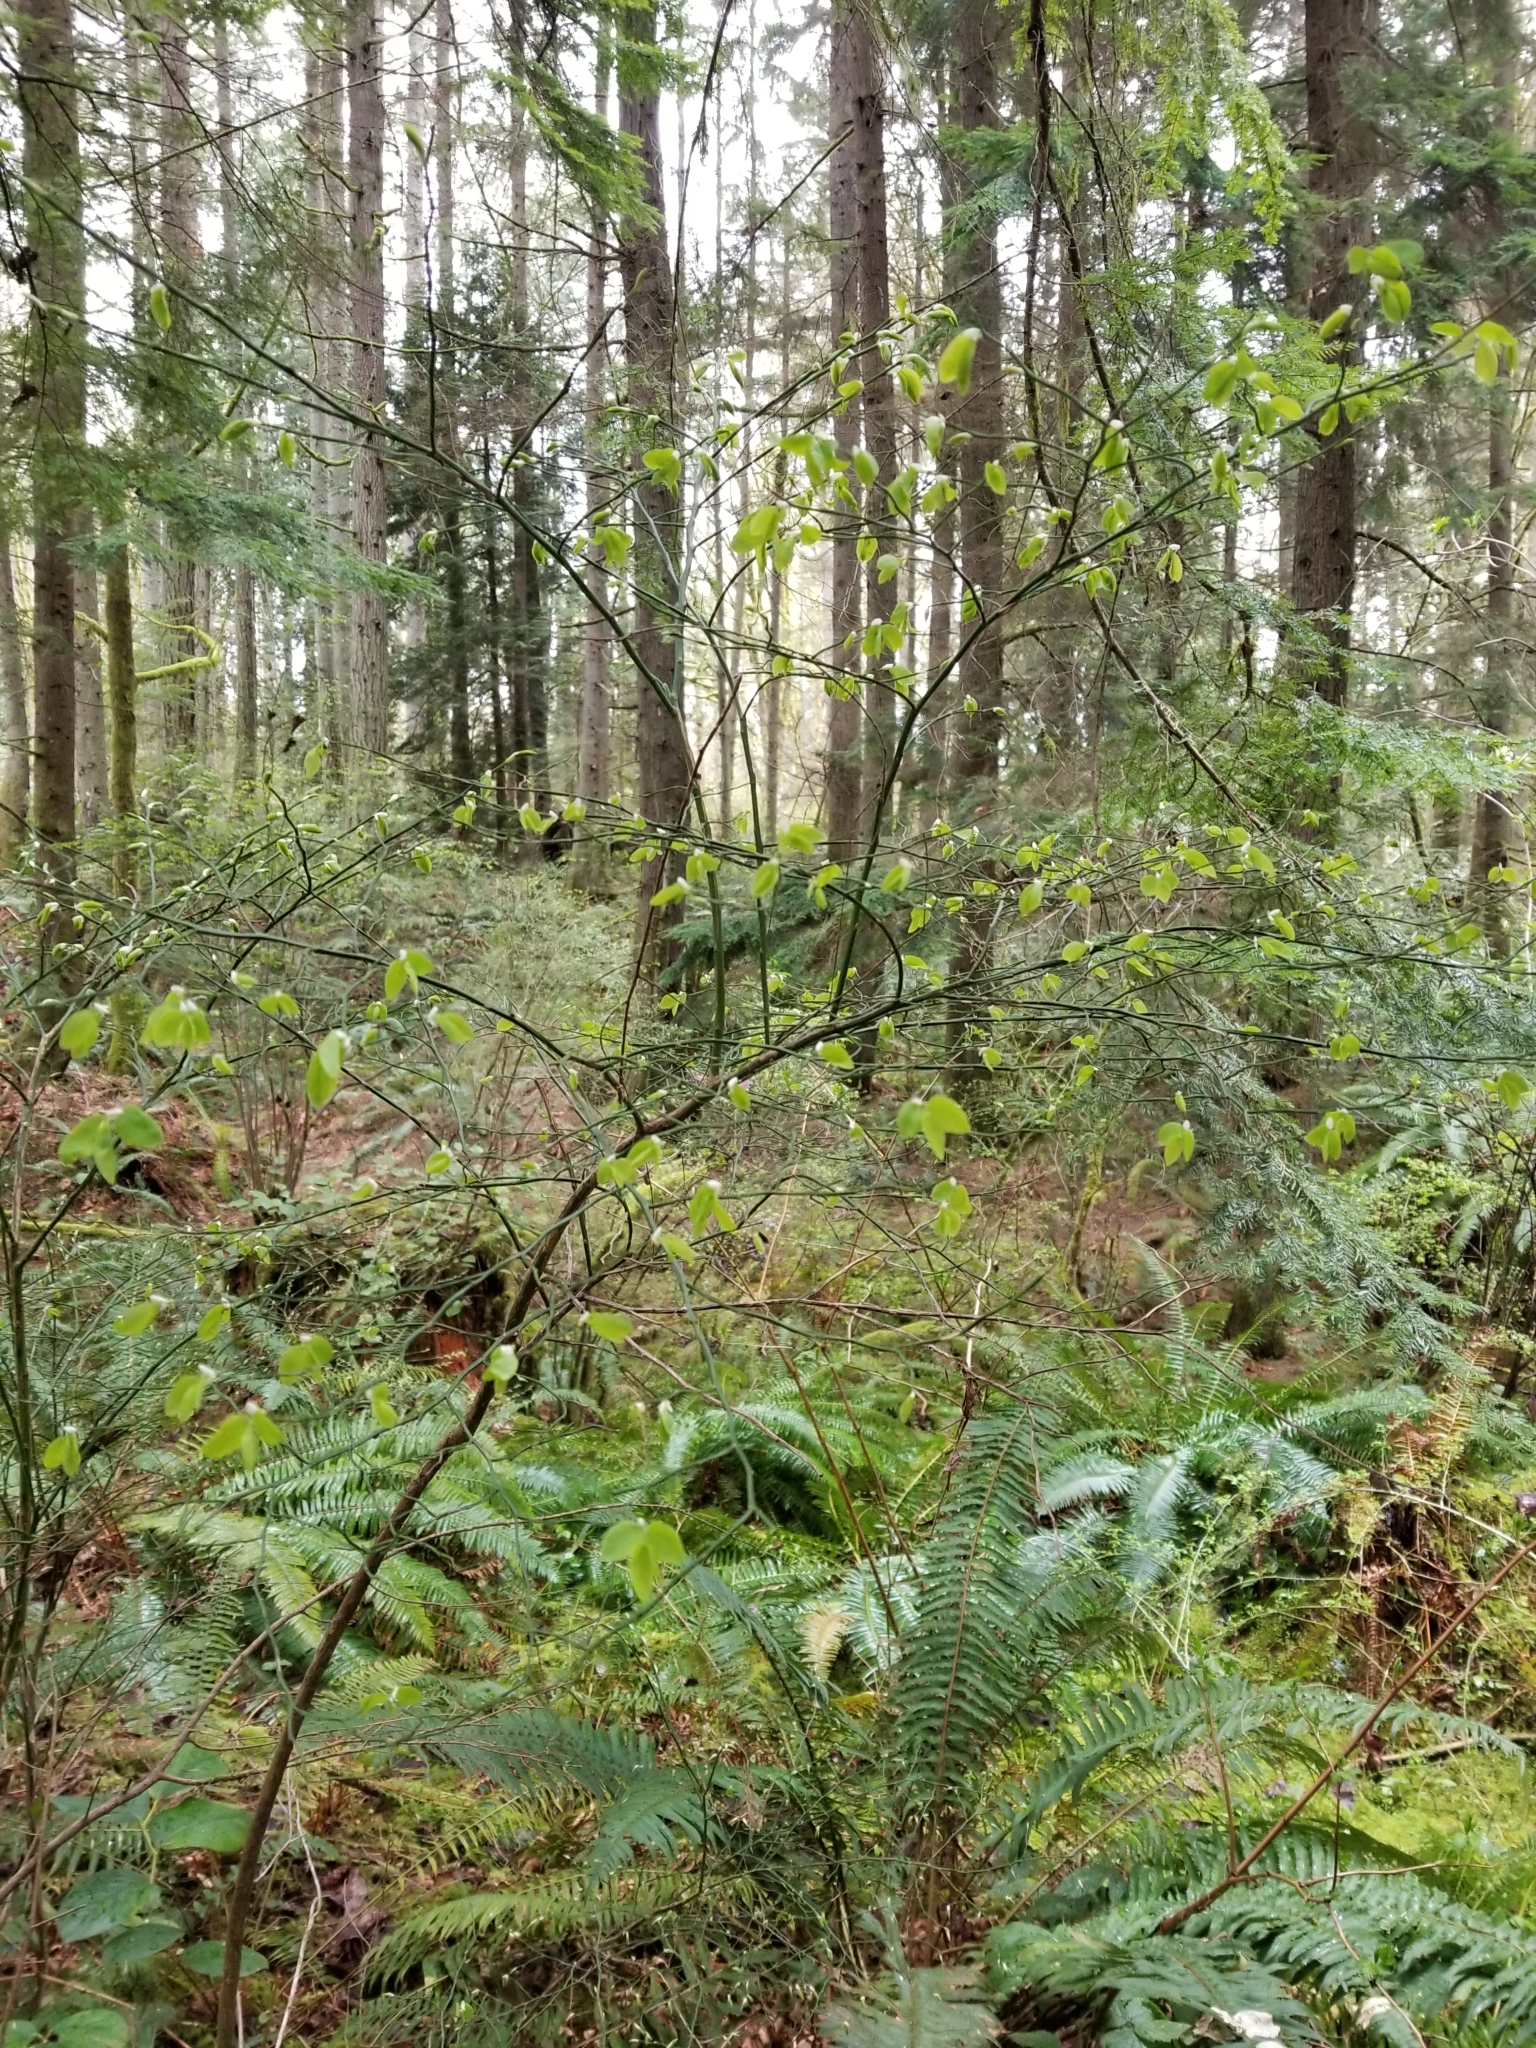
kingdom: Plantae
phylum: Tracheophyta
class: Magnoliopsida
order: Ericales
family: Ericaceae
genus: Vaccinium
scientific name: Vaccinium parvifolium
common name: Red-huckleberry
